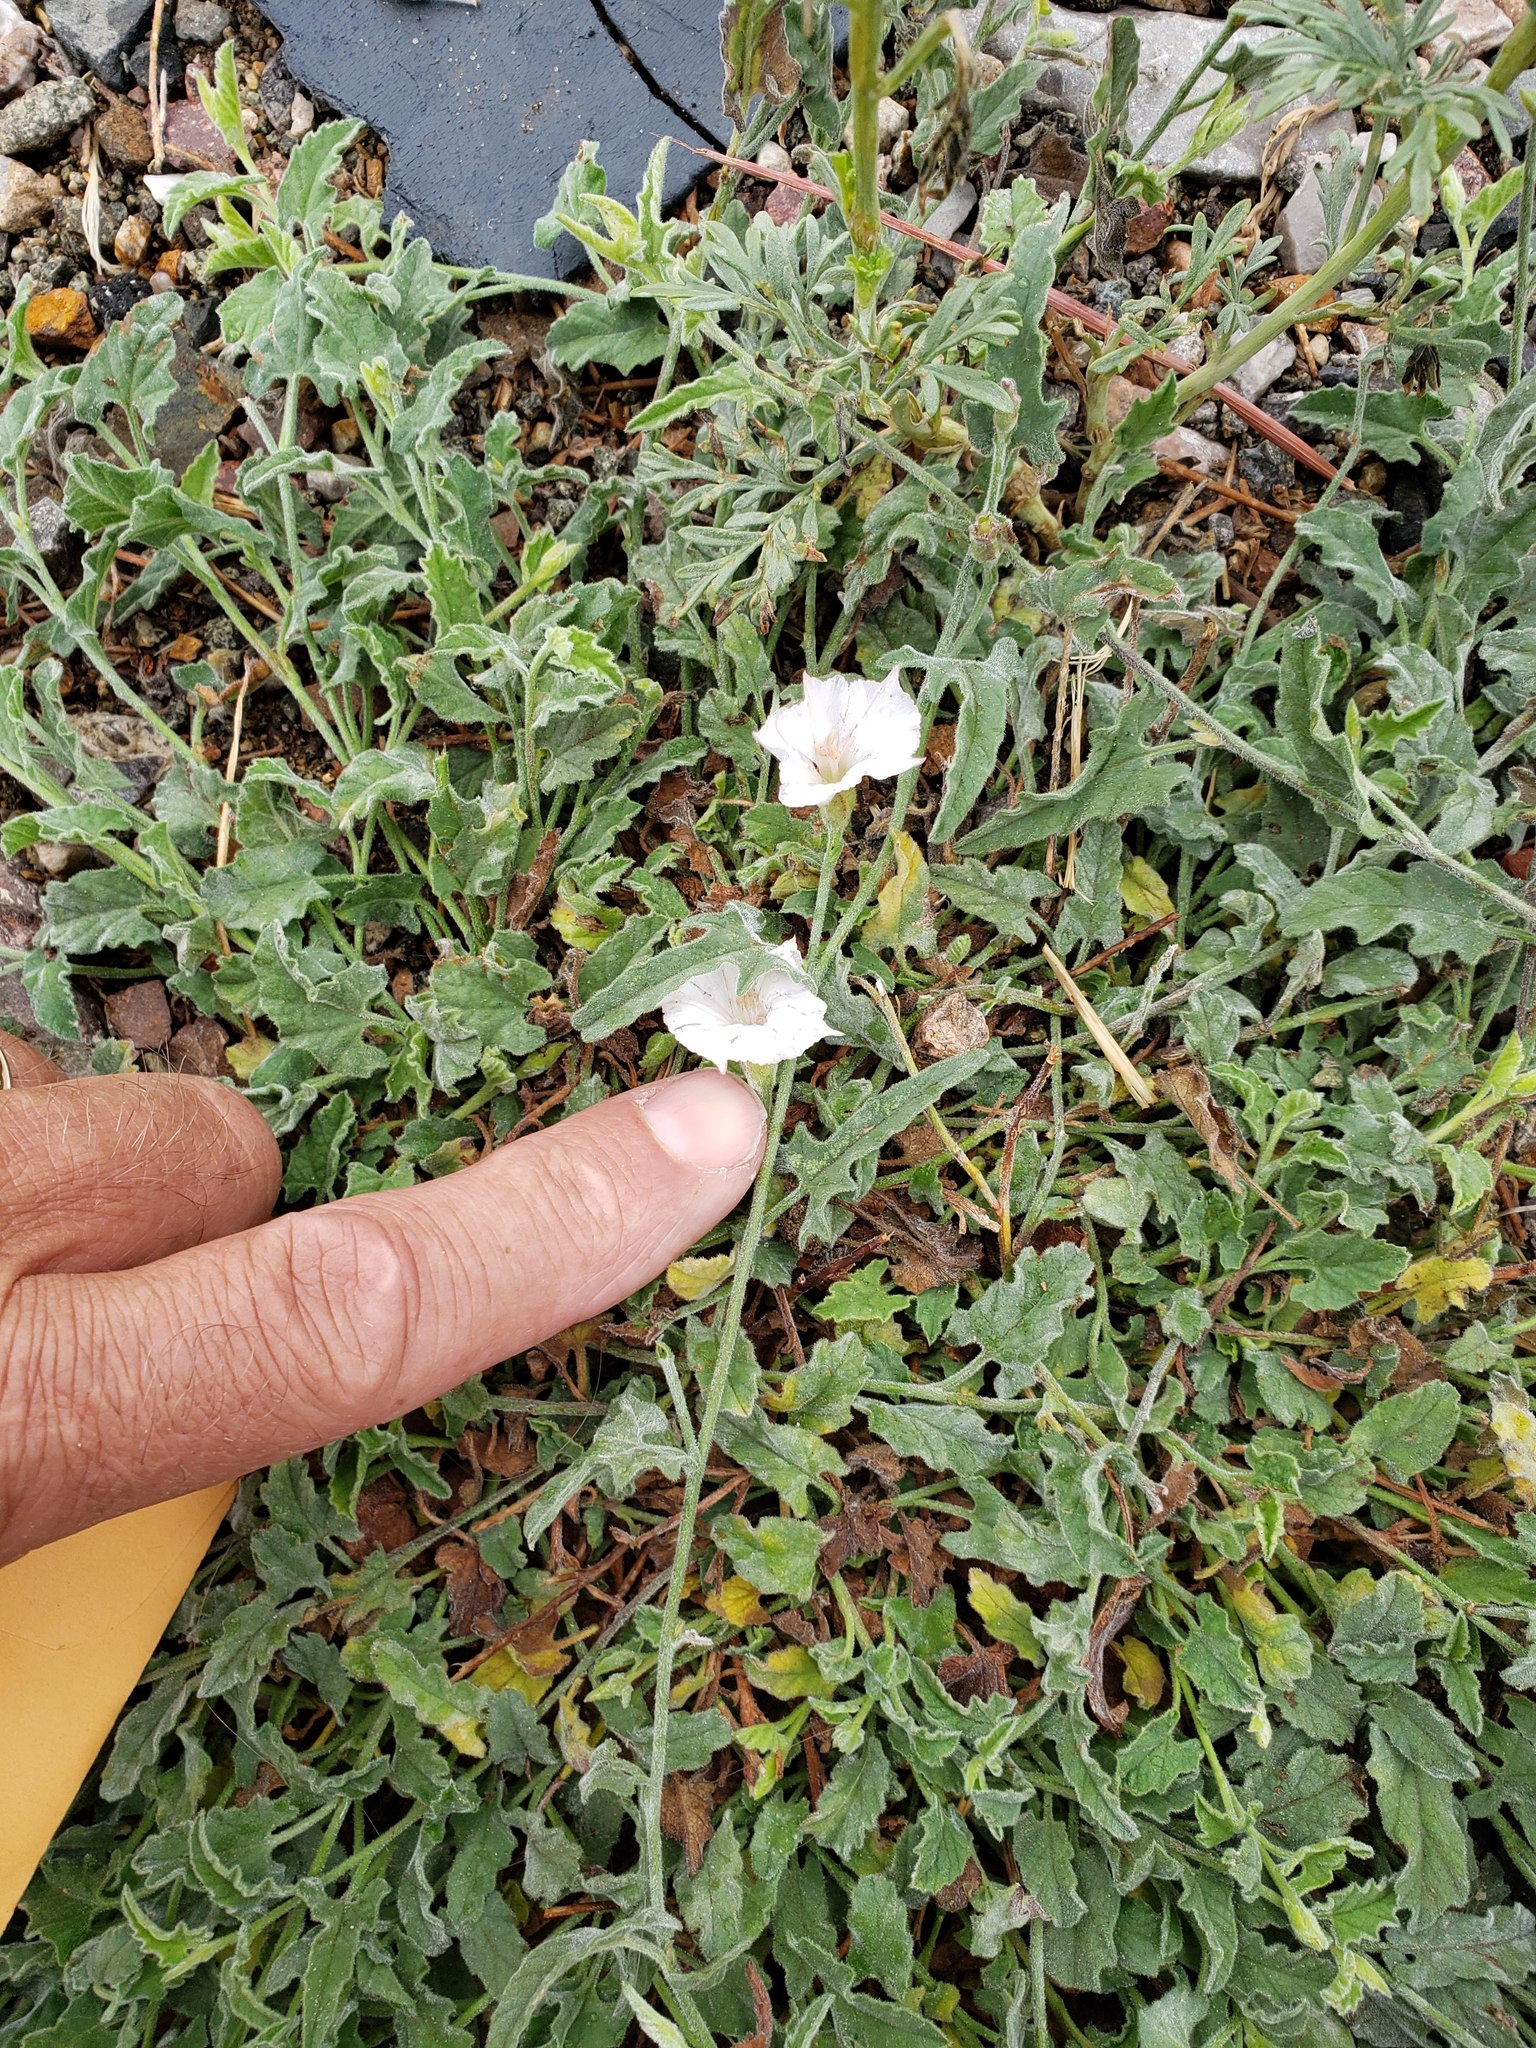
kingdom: Plantae
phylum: Tracheophyta
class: Magnoliopsida
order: Solanales
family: Convolvulaceae
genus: Convolvulus
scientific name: Convolvulus equitans
